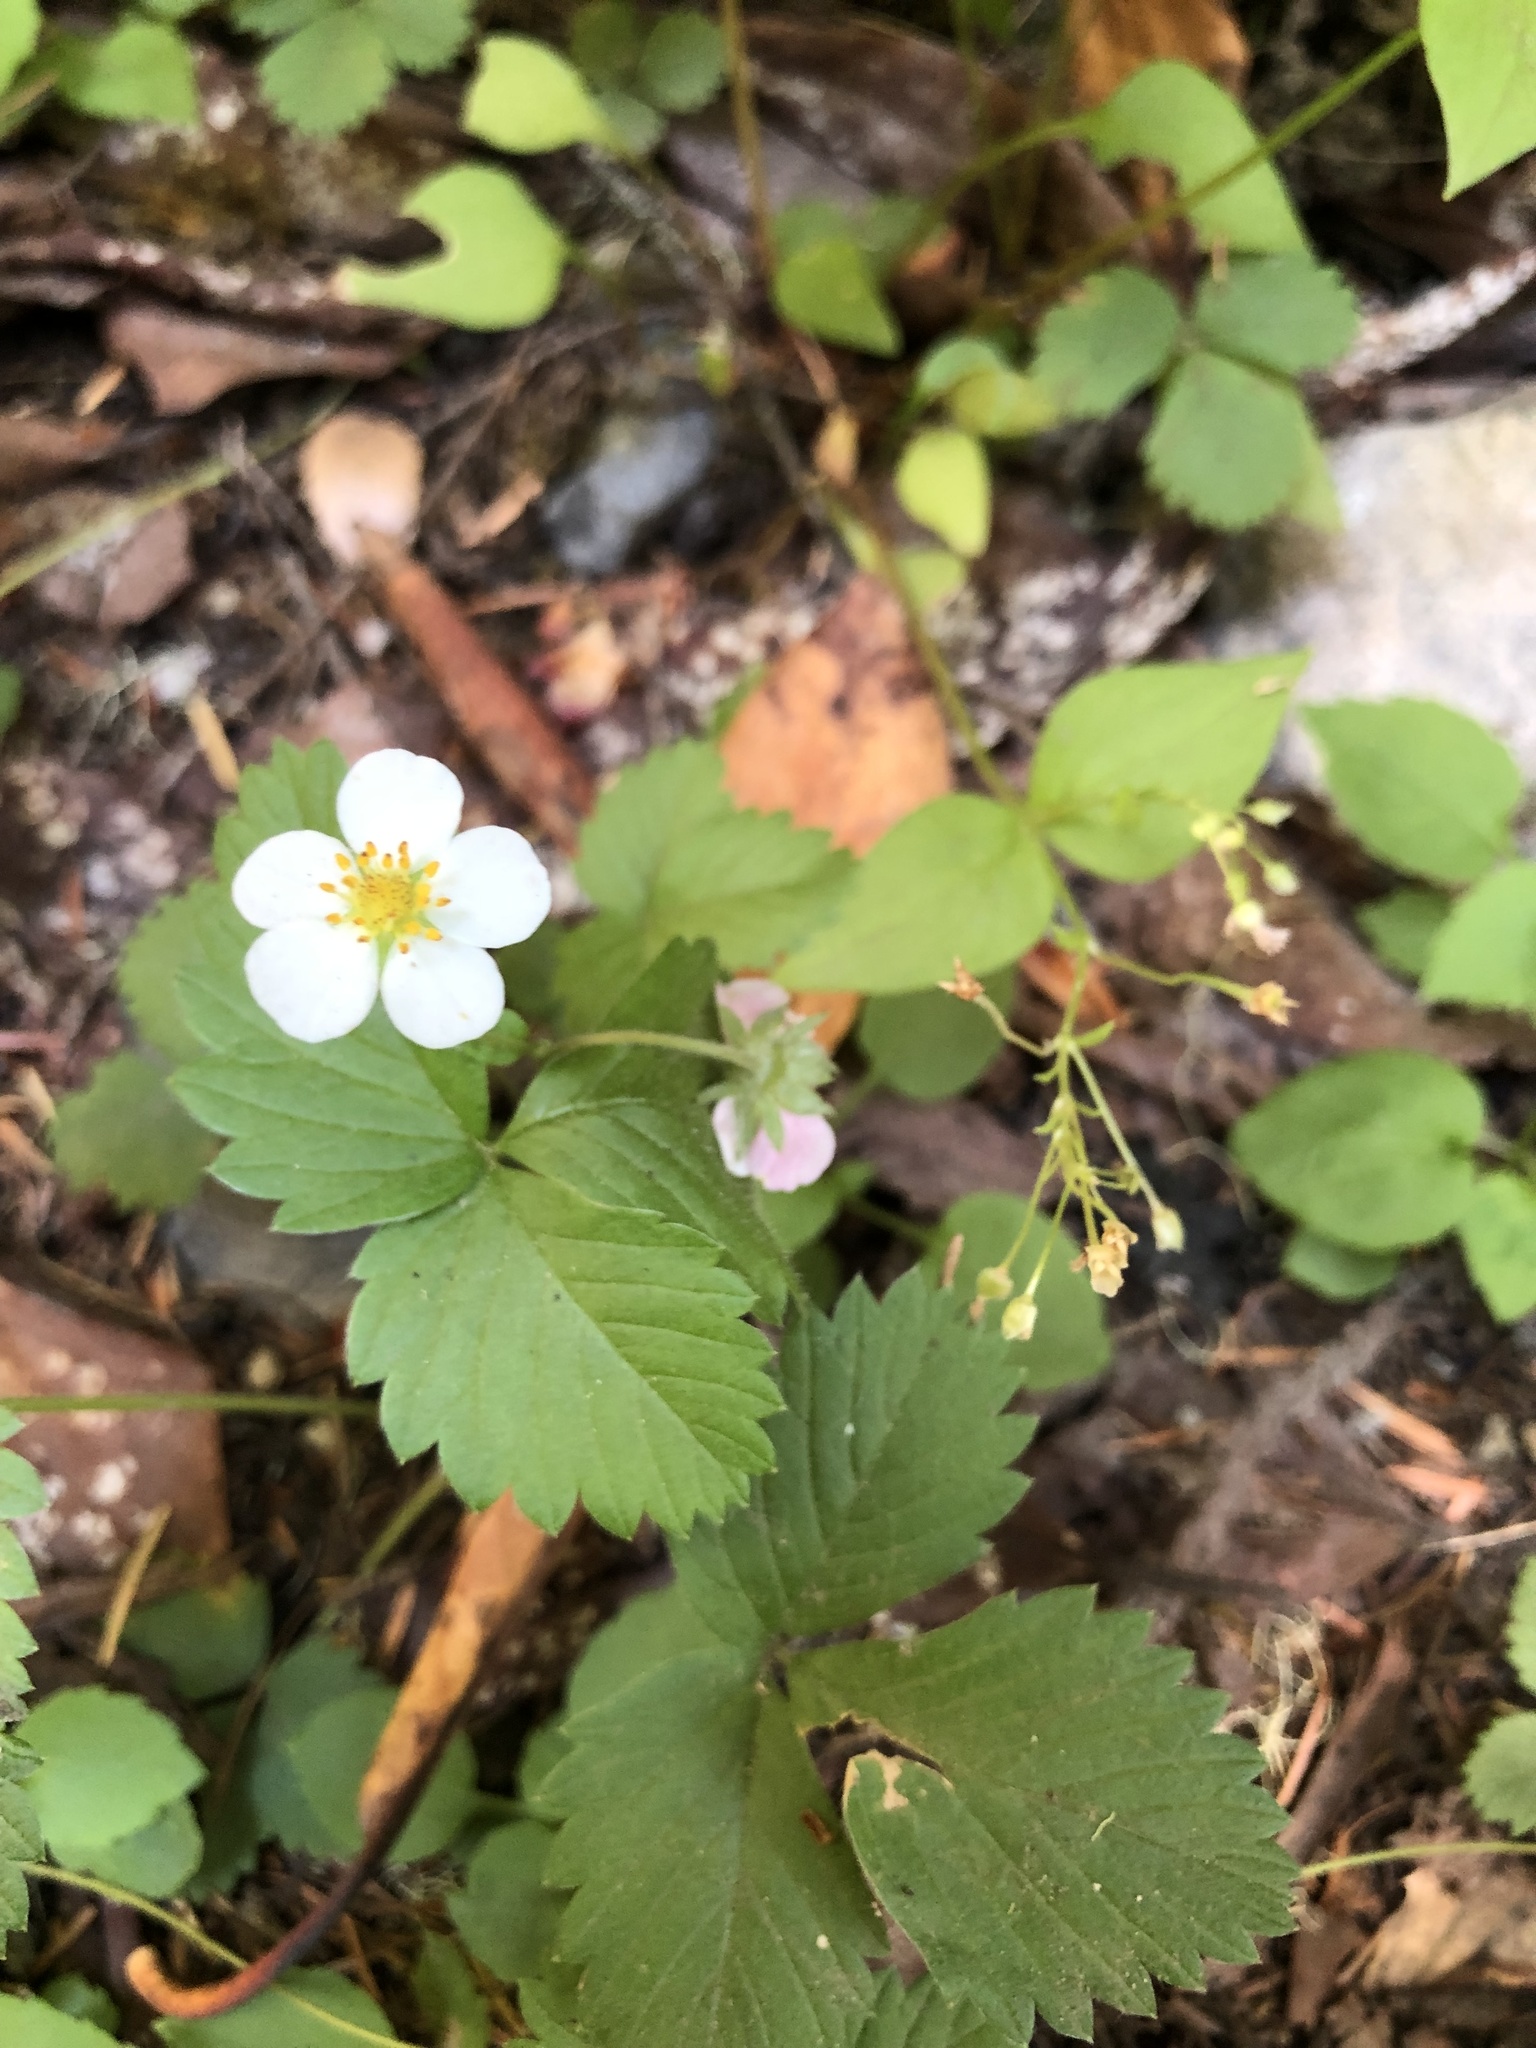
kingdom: Plantae
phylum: Tracheophyta
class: Magnoliopsida
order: Rosales
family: Rosaceae
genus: Fragaria
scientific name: Fragaria vesca
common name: Wild strawberry
